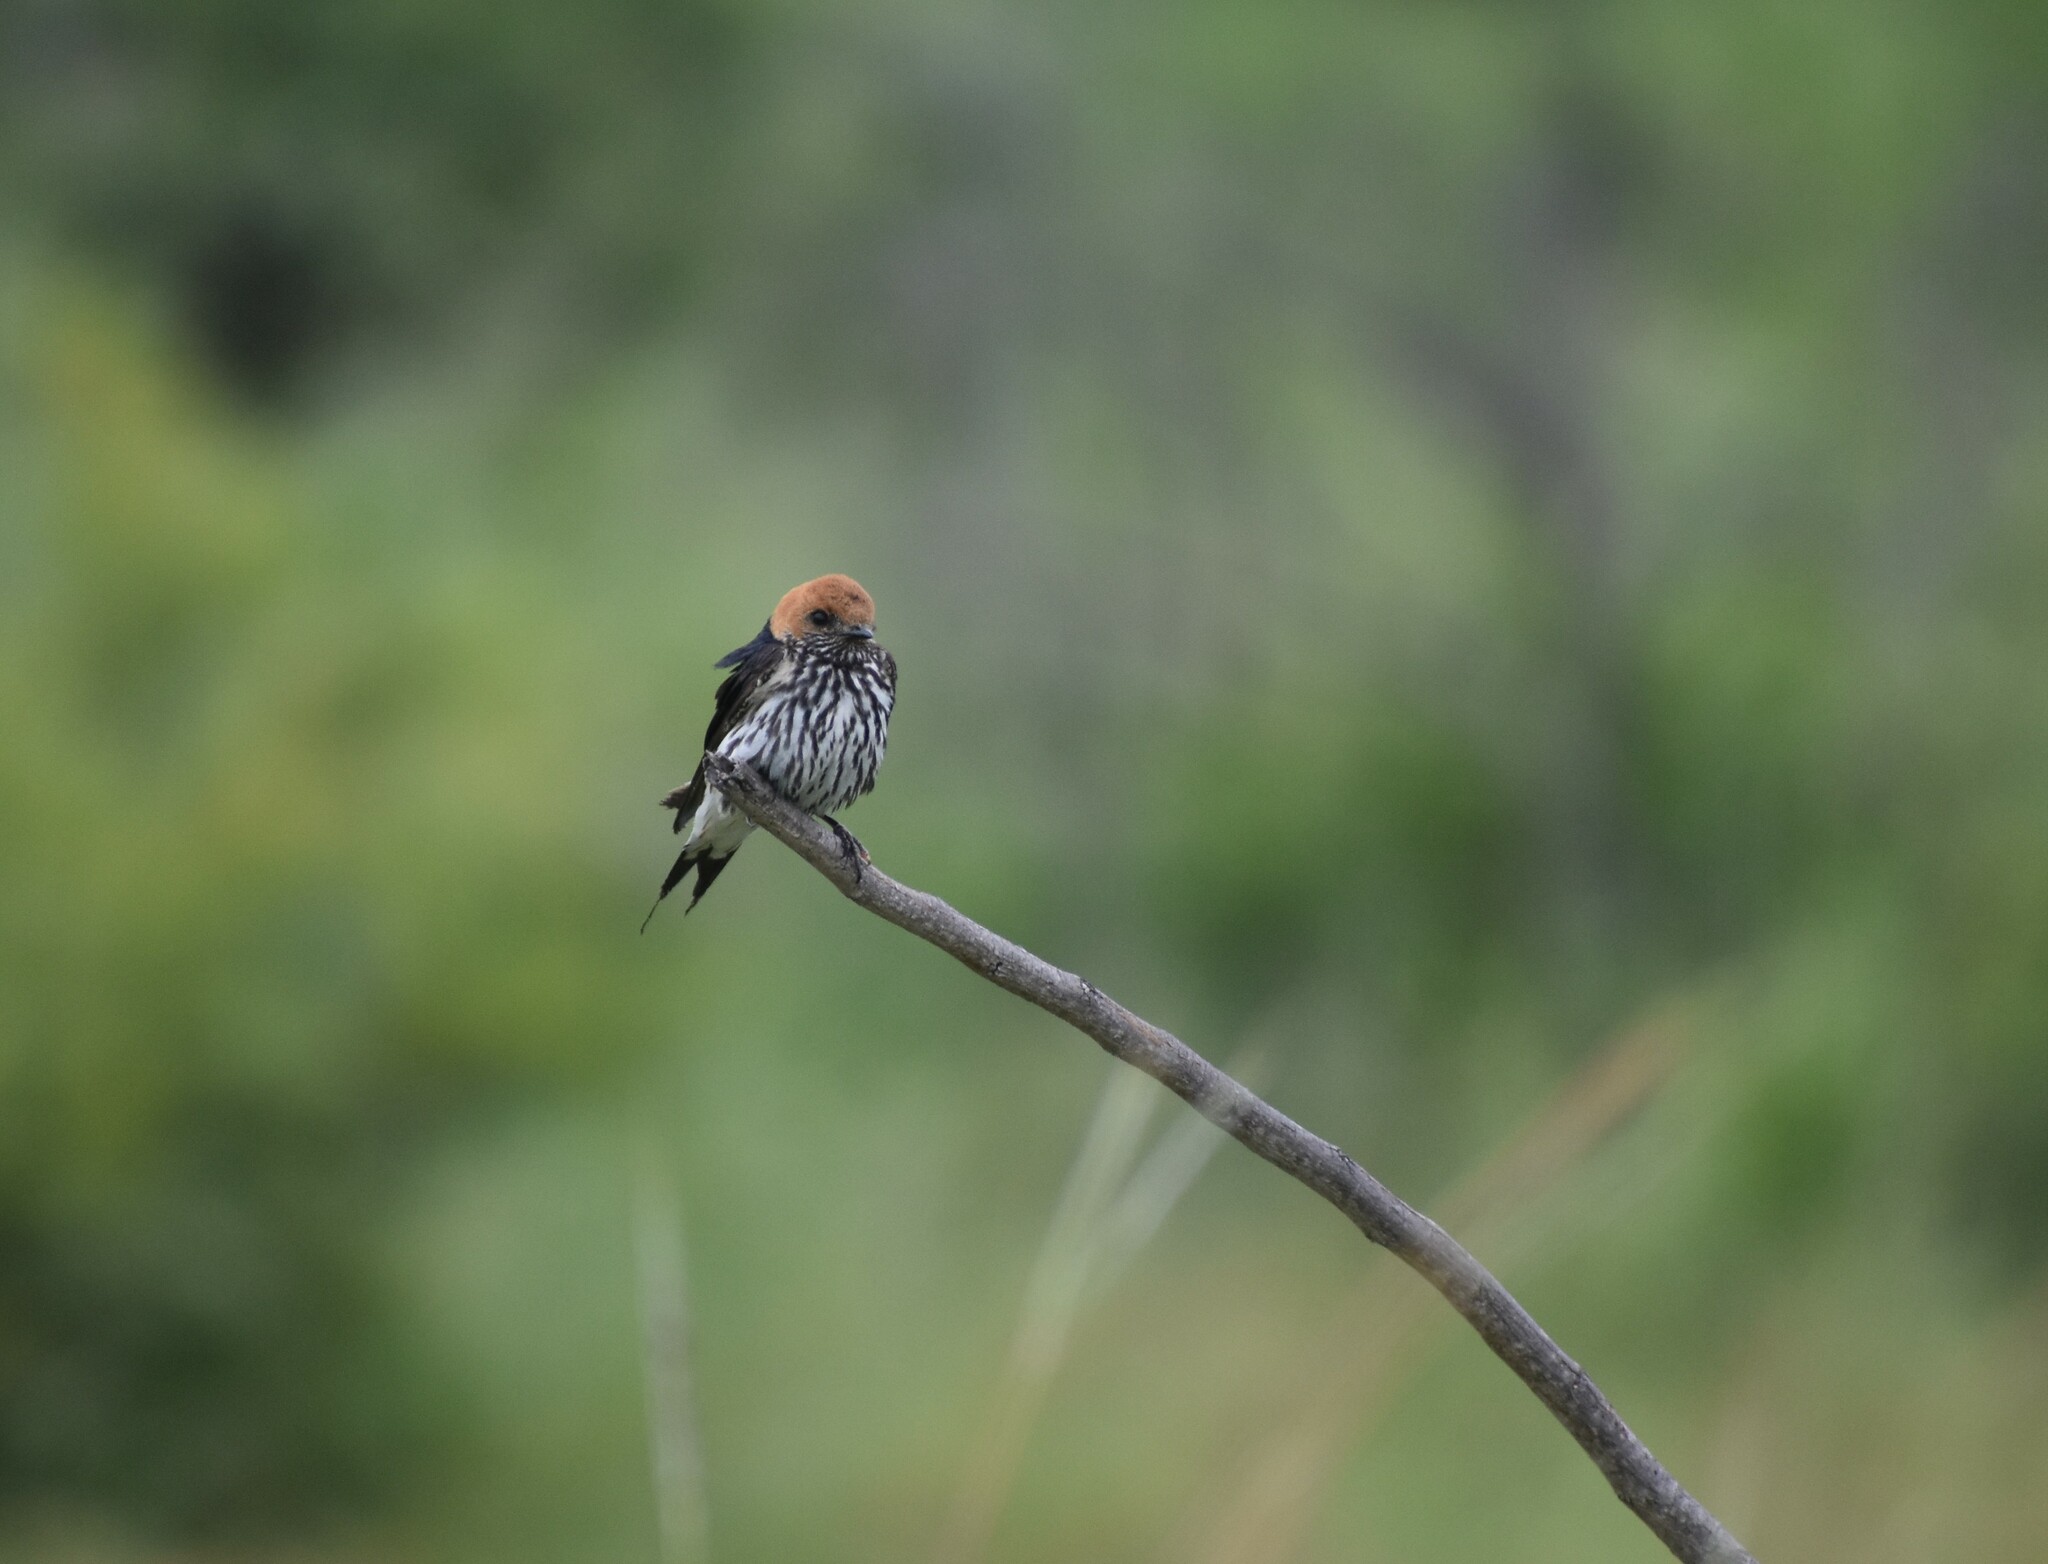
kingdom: Animalia
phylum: Chordata
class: Aves
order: Passeriformes
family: Hirundinidae
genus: Cecropis
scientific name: Cecropis abyssinica
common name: Lesser striped-swallow
